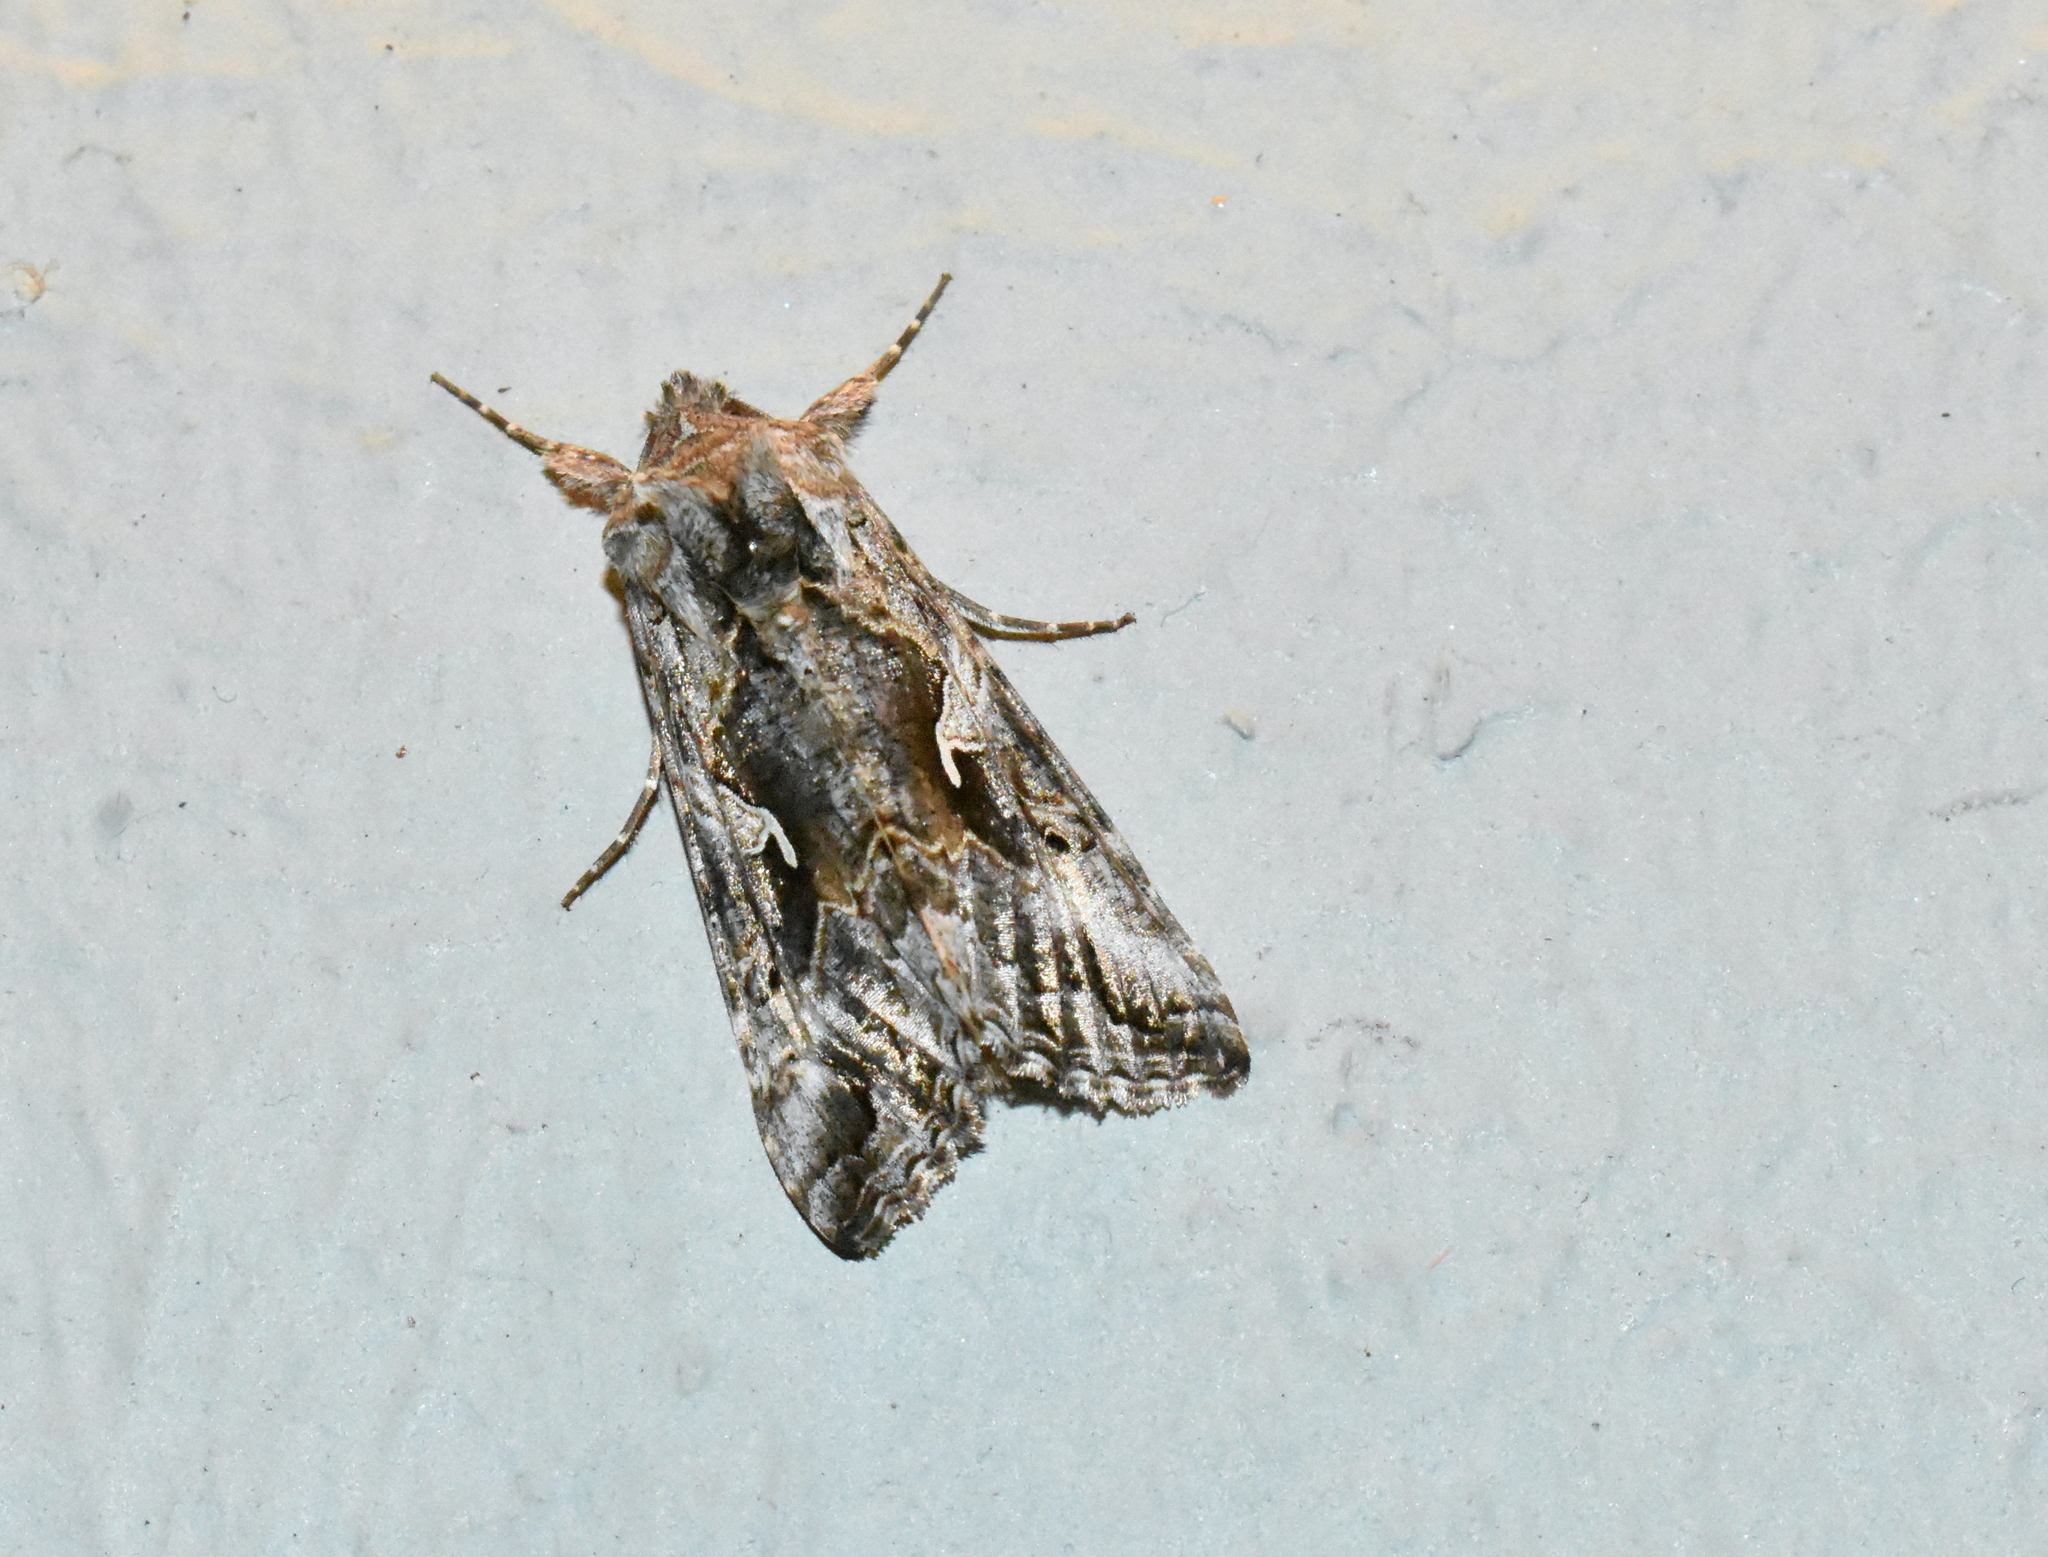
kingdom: Animalia
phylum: Arthropoda
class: Insecta
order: Lepidoptera
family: Noctuidae
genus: Autographa
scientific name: Autographa californica
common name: Alfalfa looper
